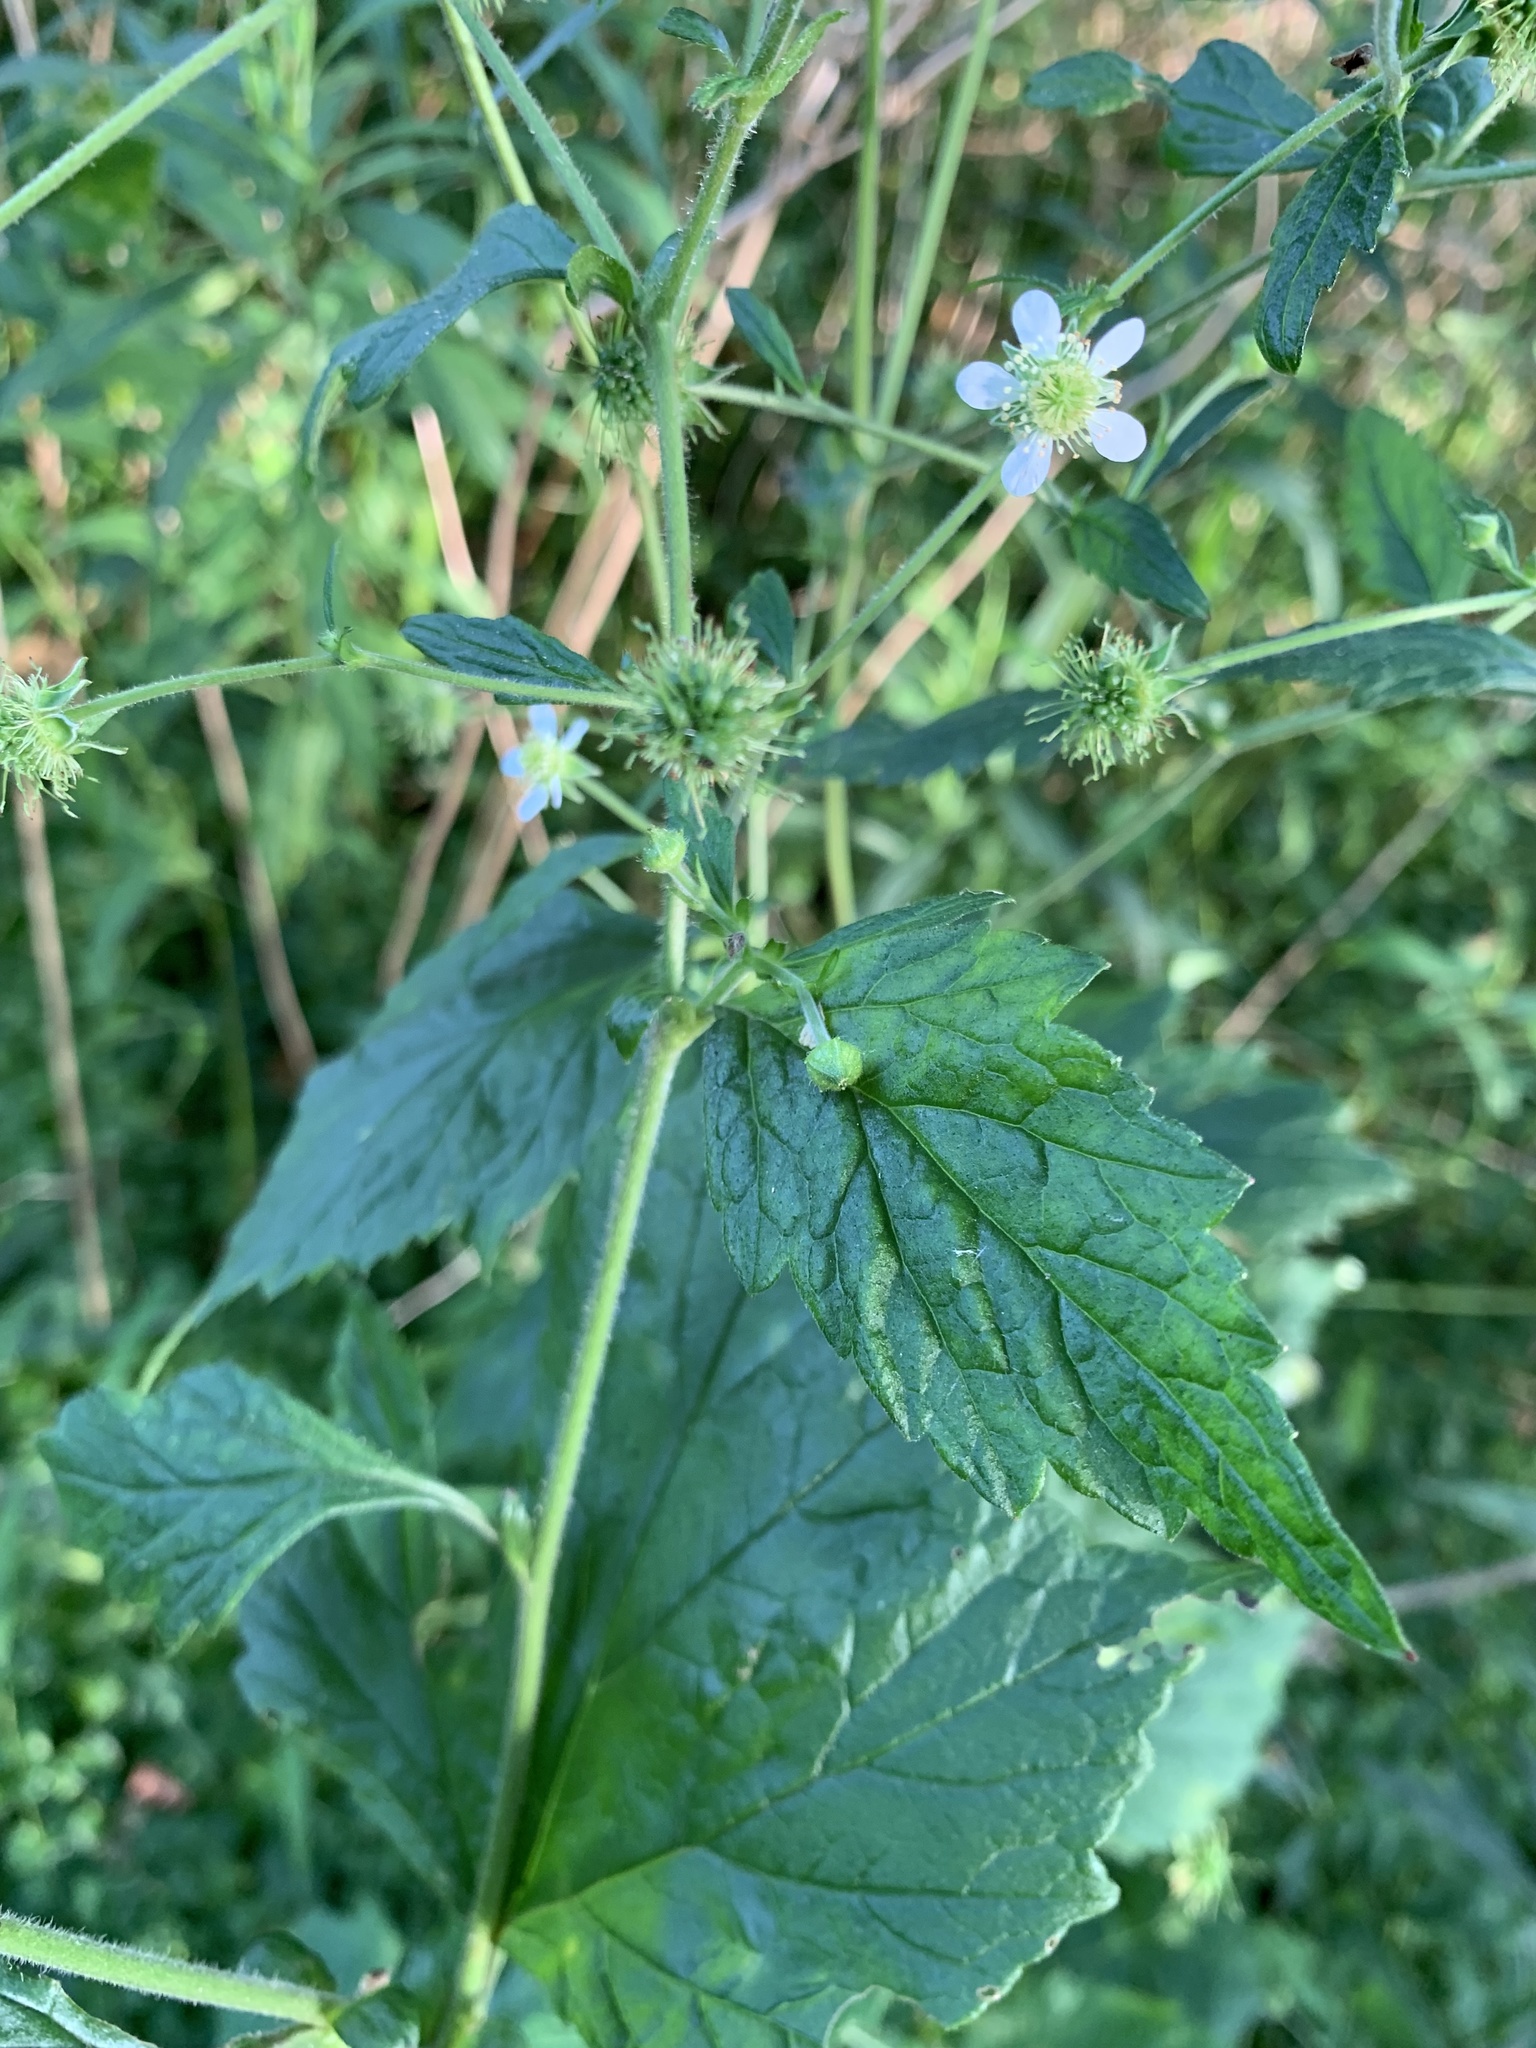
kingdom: Plantae
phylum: Tracheophyta
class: Magnoliopsida
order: Rosales
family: Rosaceae
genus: Geum
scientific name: Geum canadense
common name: White avens
